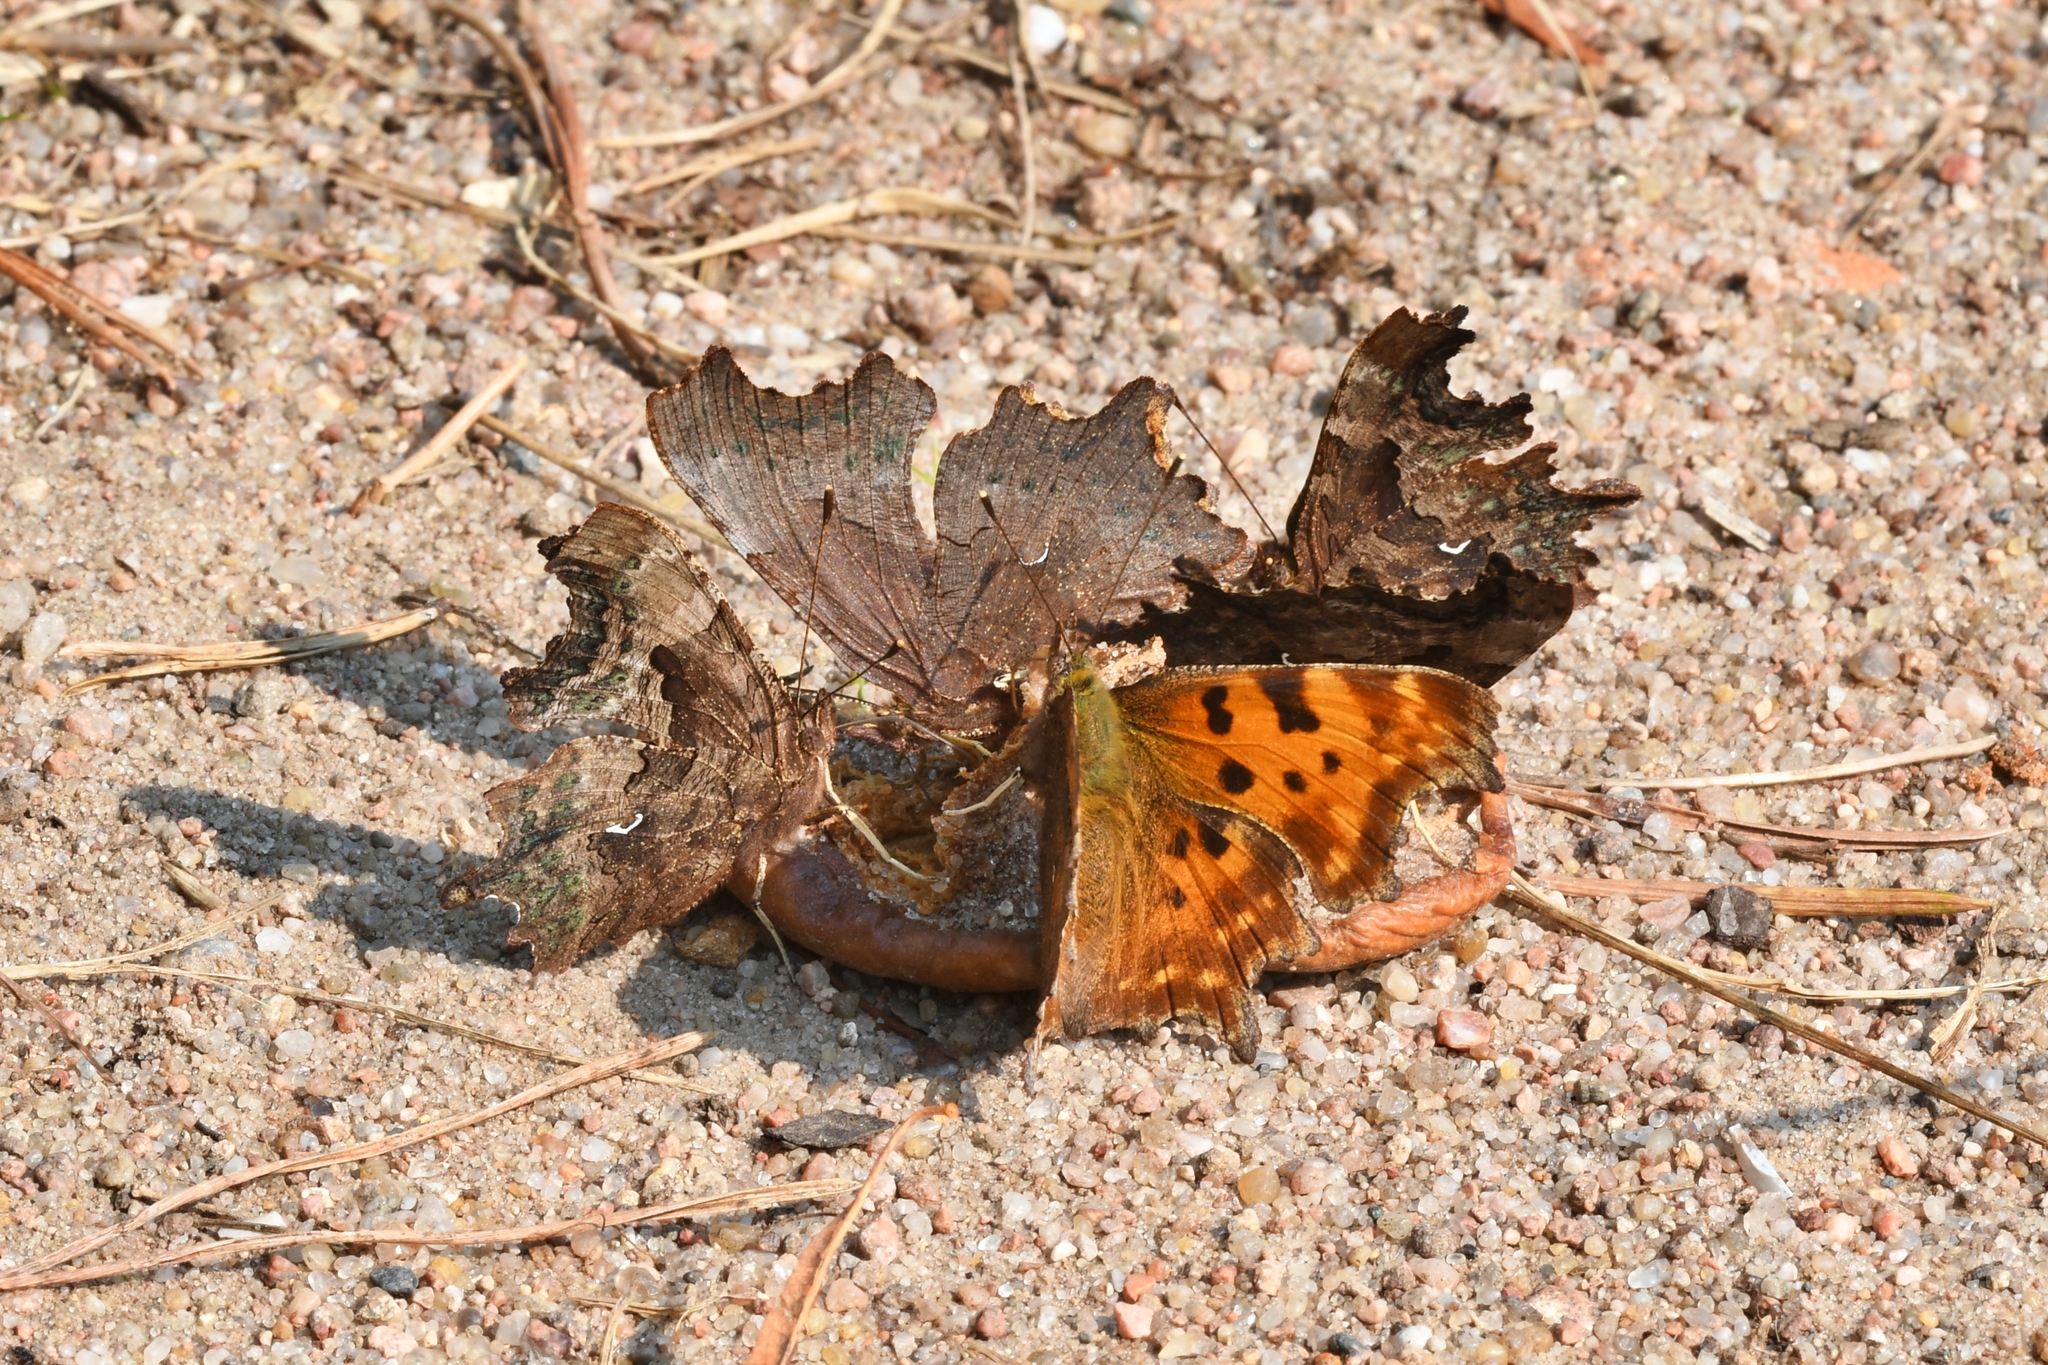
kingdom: Animalia
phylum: Arthropoda
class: Insecta
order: Lepidoptera
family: Nymphalidae
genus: Polygonia
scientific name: Polygonia c-album
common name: Comma
